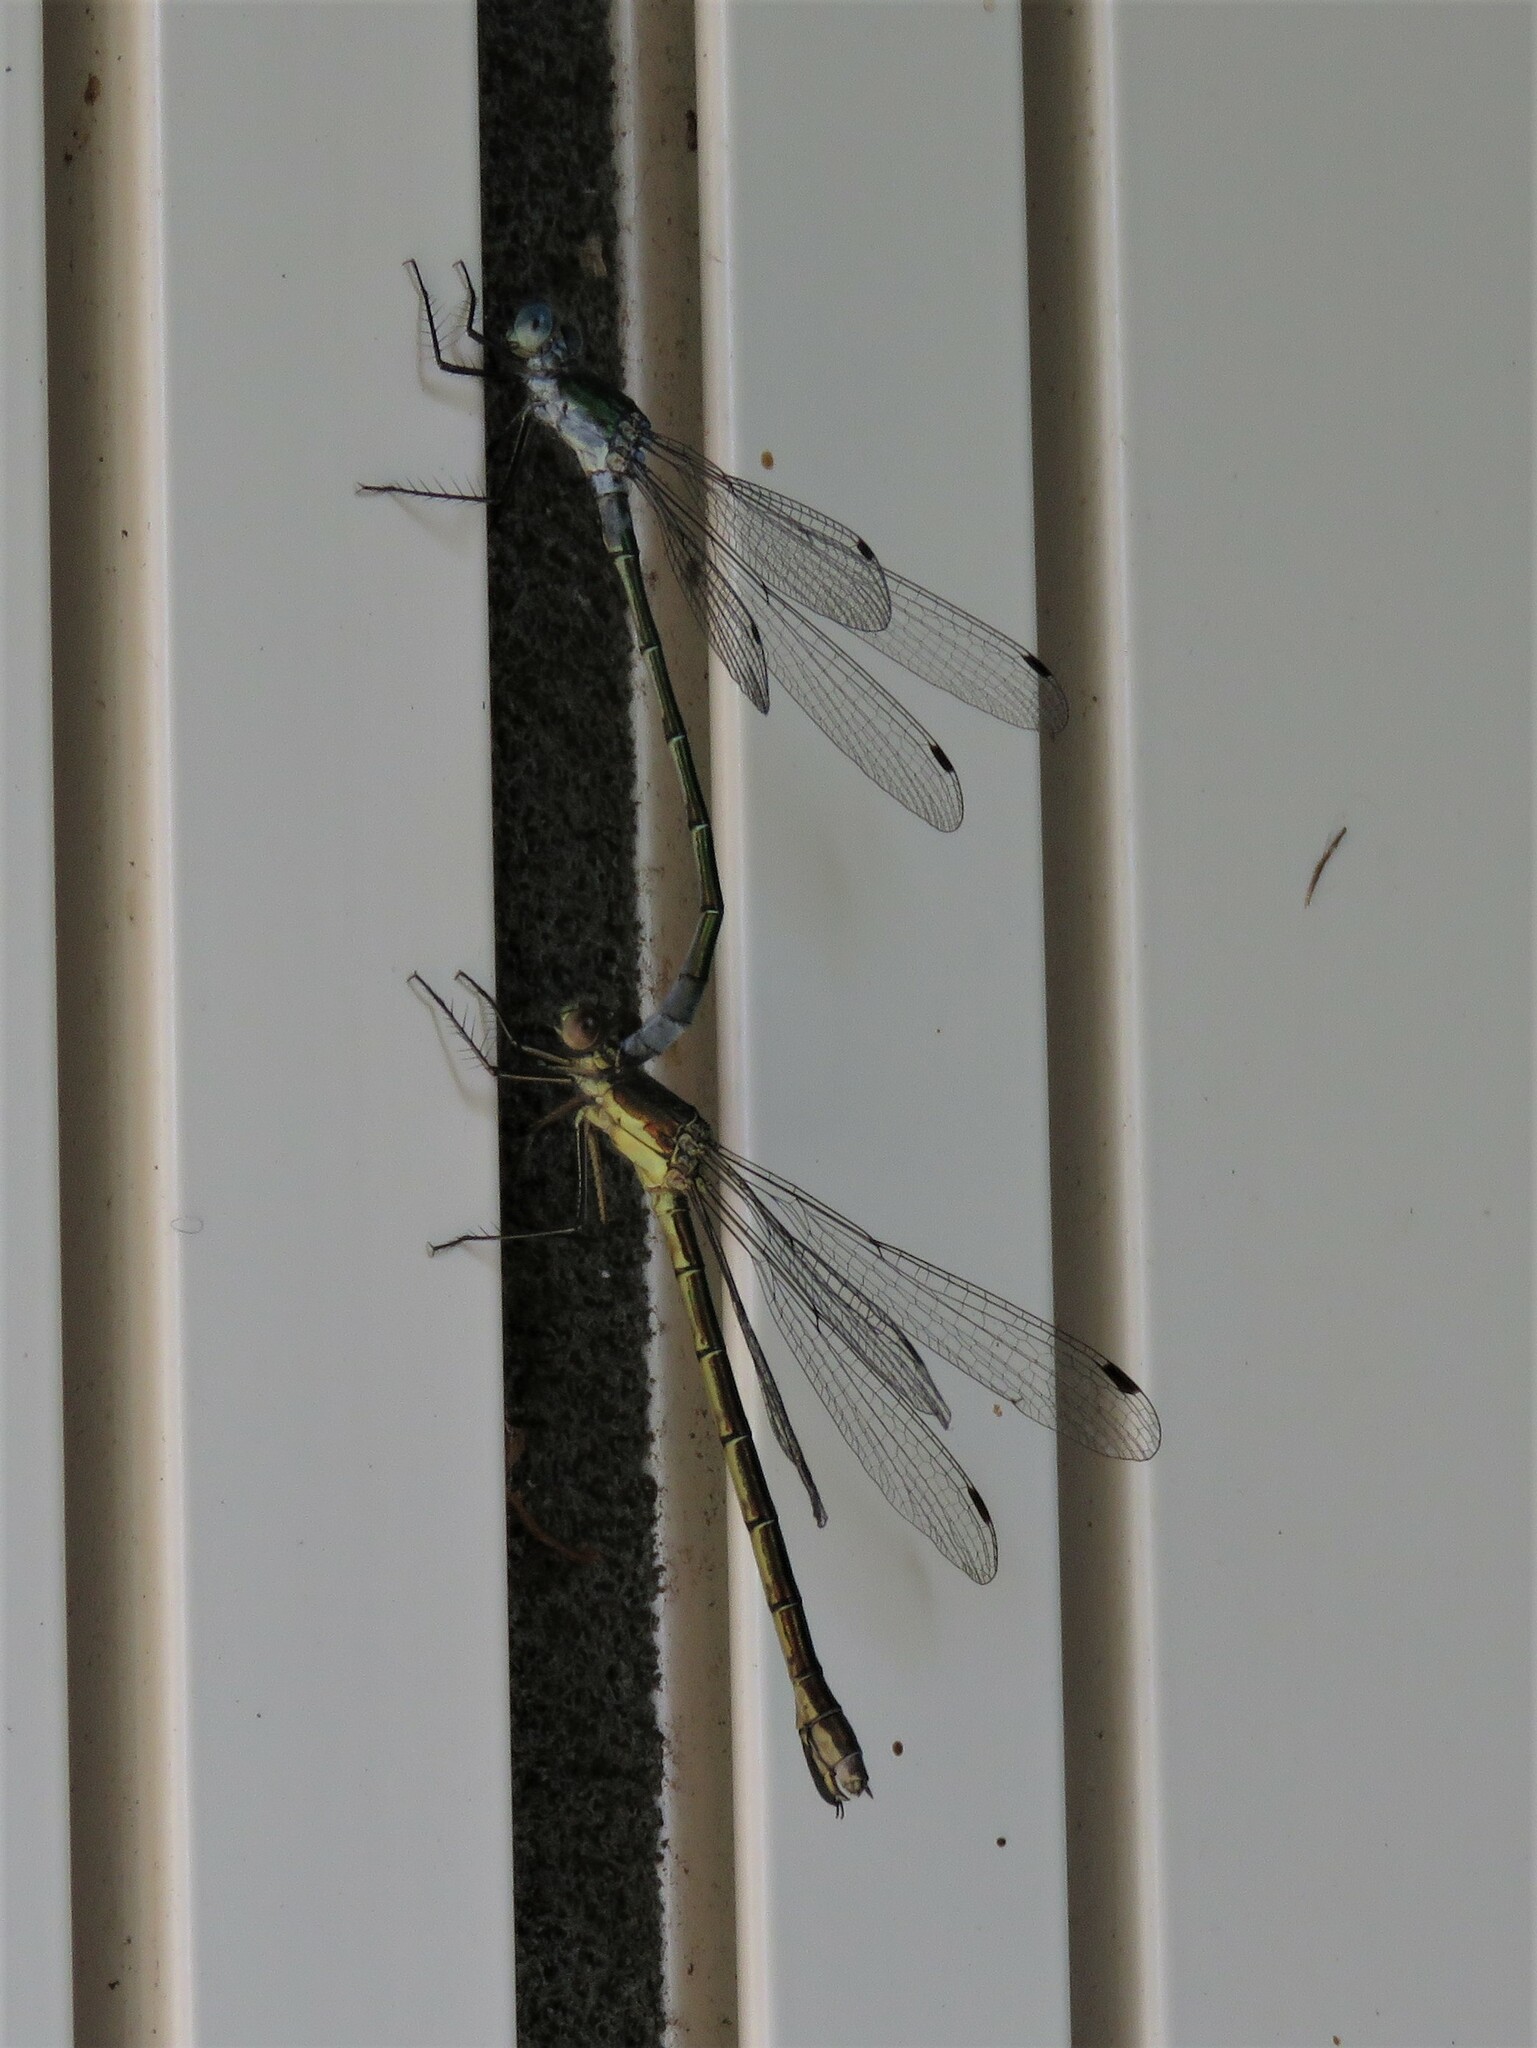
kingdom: Animalia
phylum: Arthropoda
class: Insecta
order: Odonata
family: Lestidae
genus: Lestes
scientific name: Lestes dryas
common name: Scarce emerald damselfly
